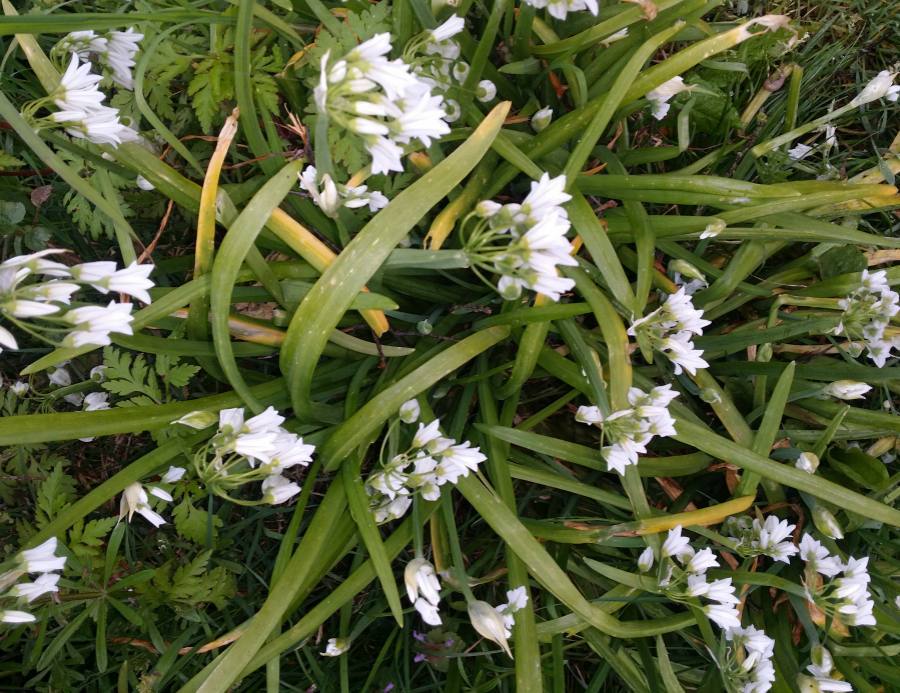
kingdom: Plantae
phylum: Tracheophyta
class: Liliopsida
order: Asparagales
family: Amaryllidaceae
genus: Allium
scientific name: Allium triquetrum
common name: Three-cornered garlic
